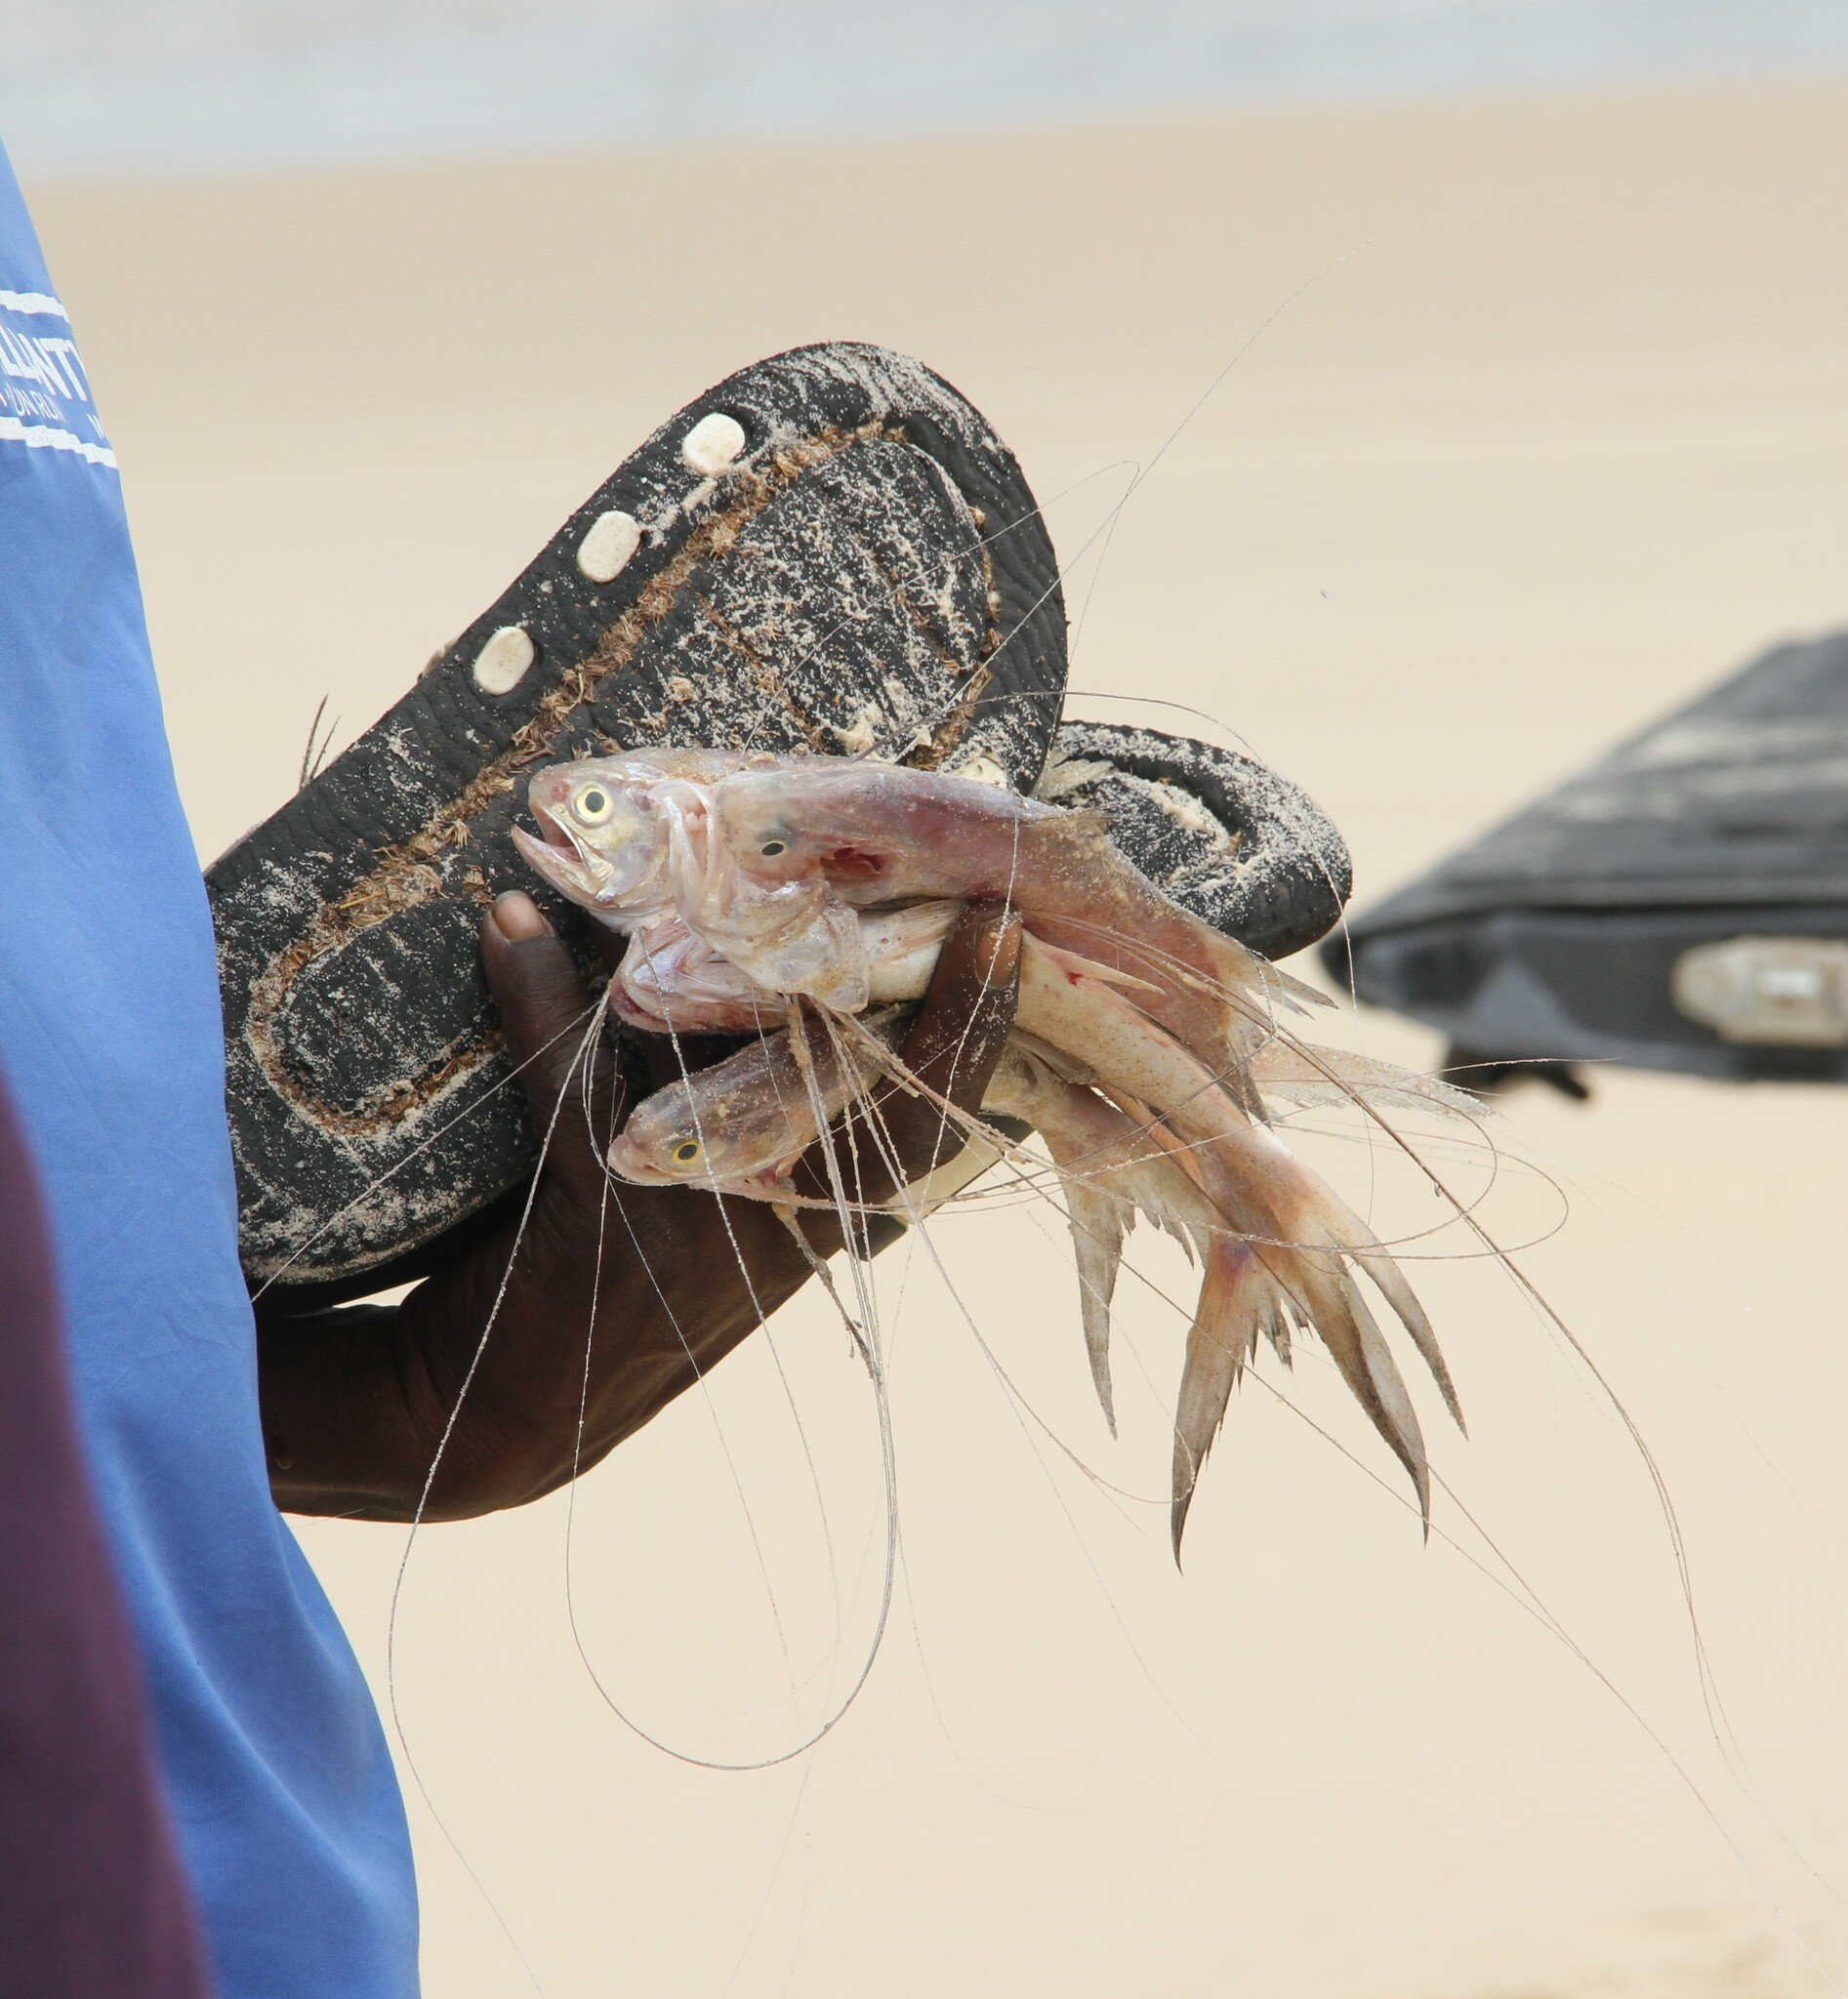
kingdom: Animalia
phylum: Chordata
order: Perciformes
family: Polynemidae
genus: Pentanemus
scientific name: Pentanemus quinquarius
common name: Royal threadfin
